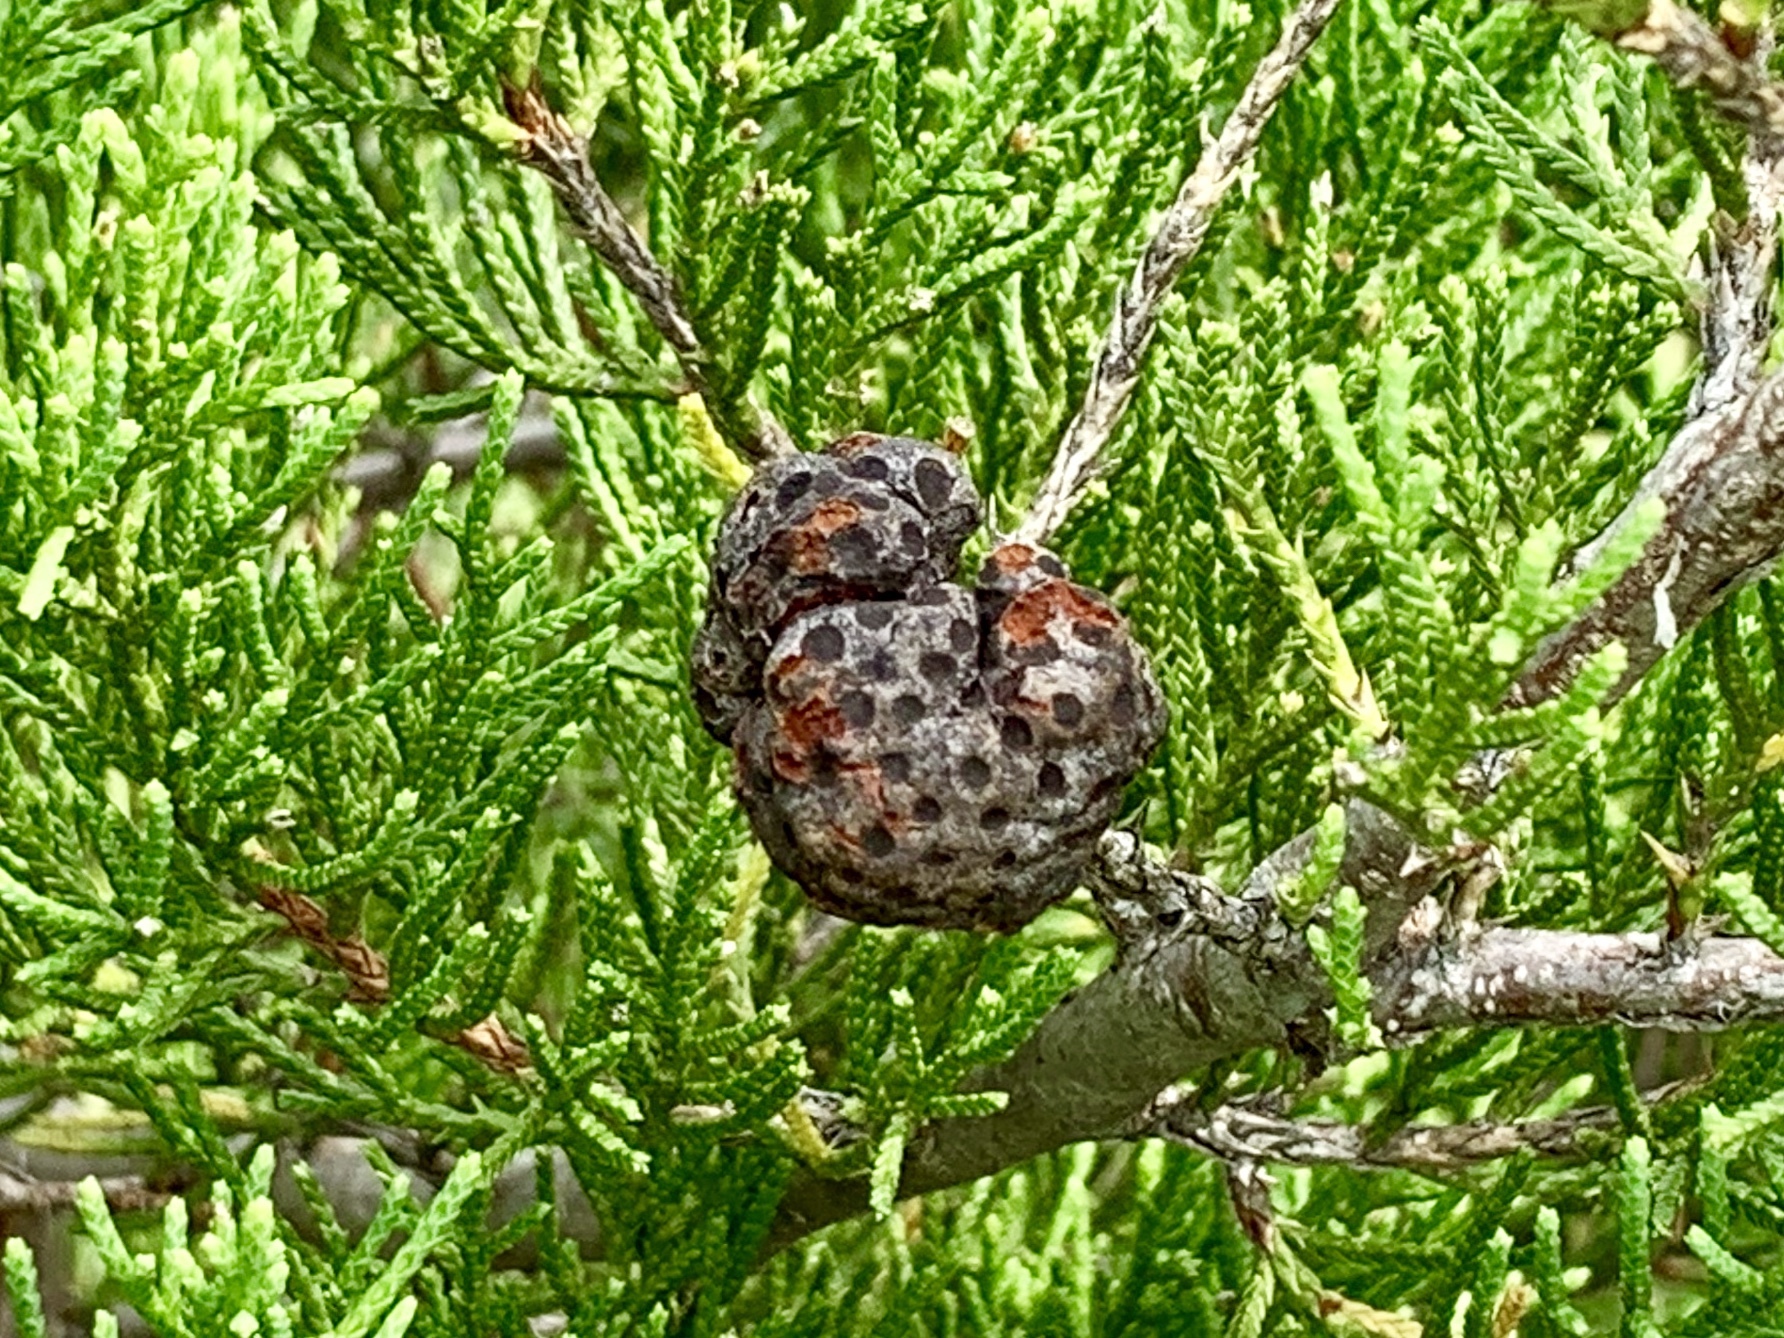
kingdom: Fungi
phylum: Basidiomycota
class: Pucciniomycetes
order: Pucciniales
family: Gymnosporangiaceae
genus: Gymnosporangium
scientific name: Gymnosporangium juniperi-virginianae
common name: Juniper-apple rust
